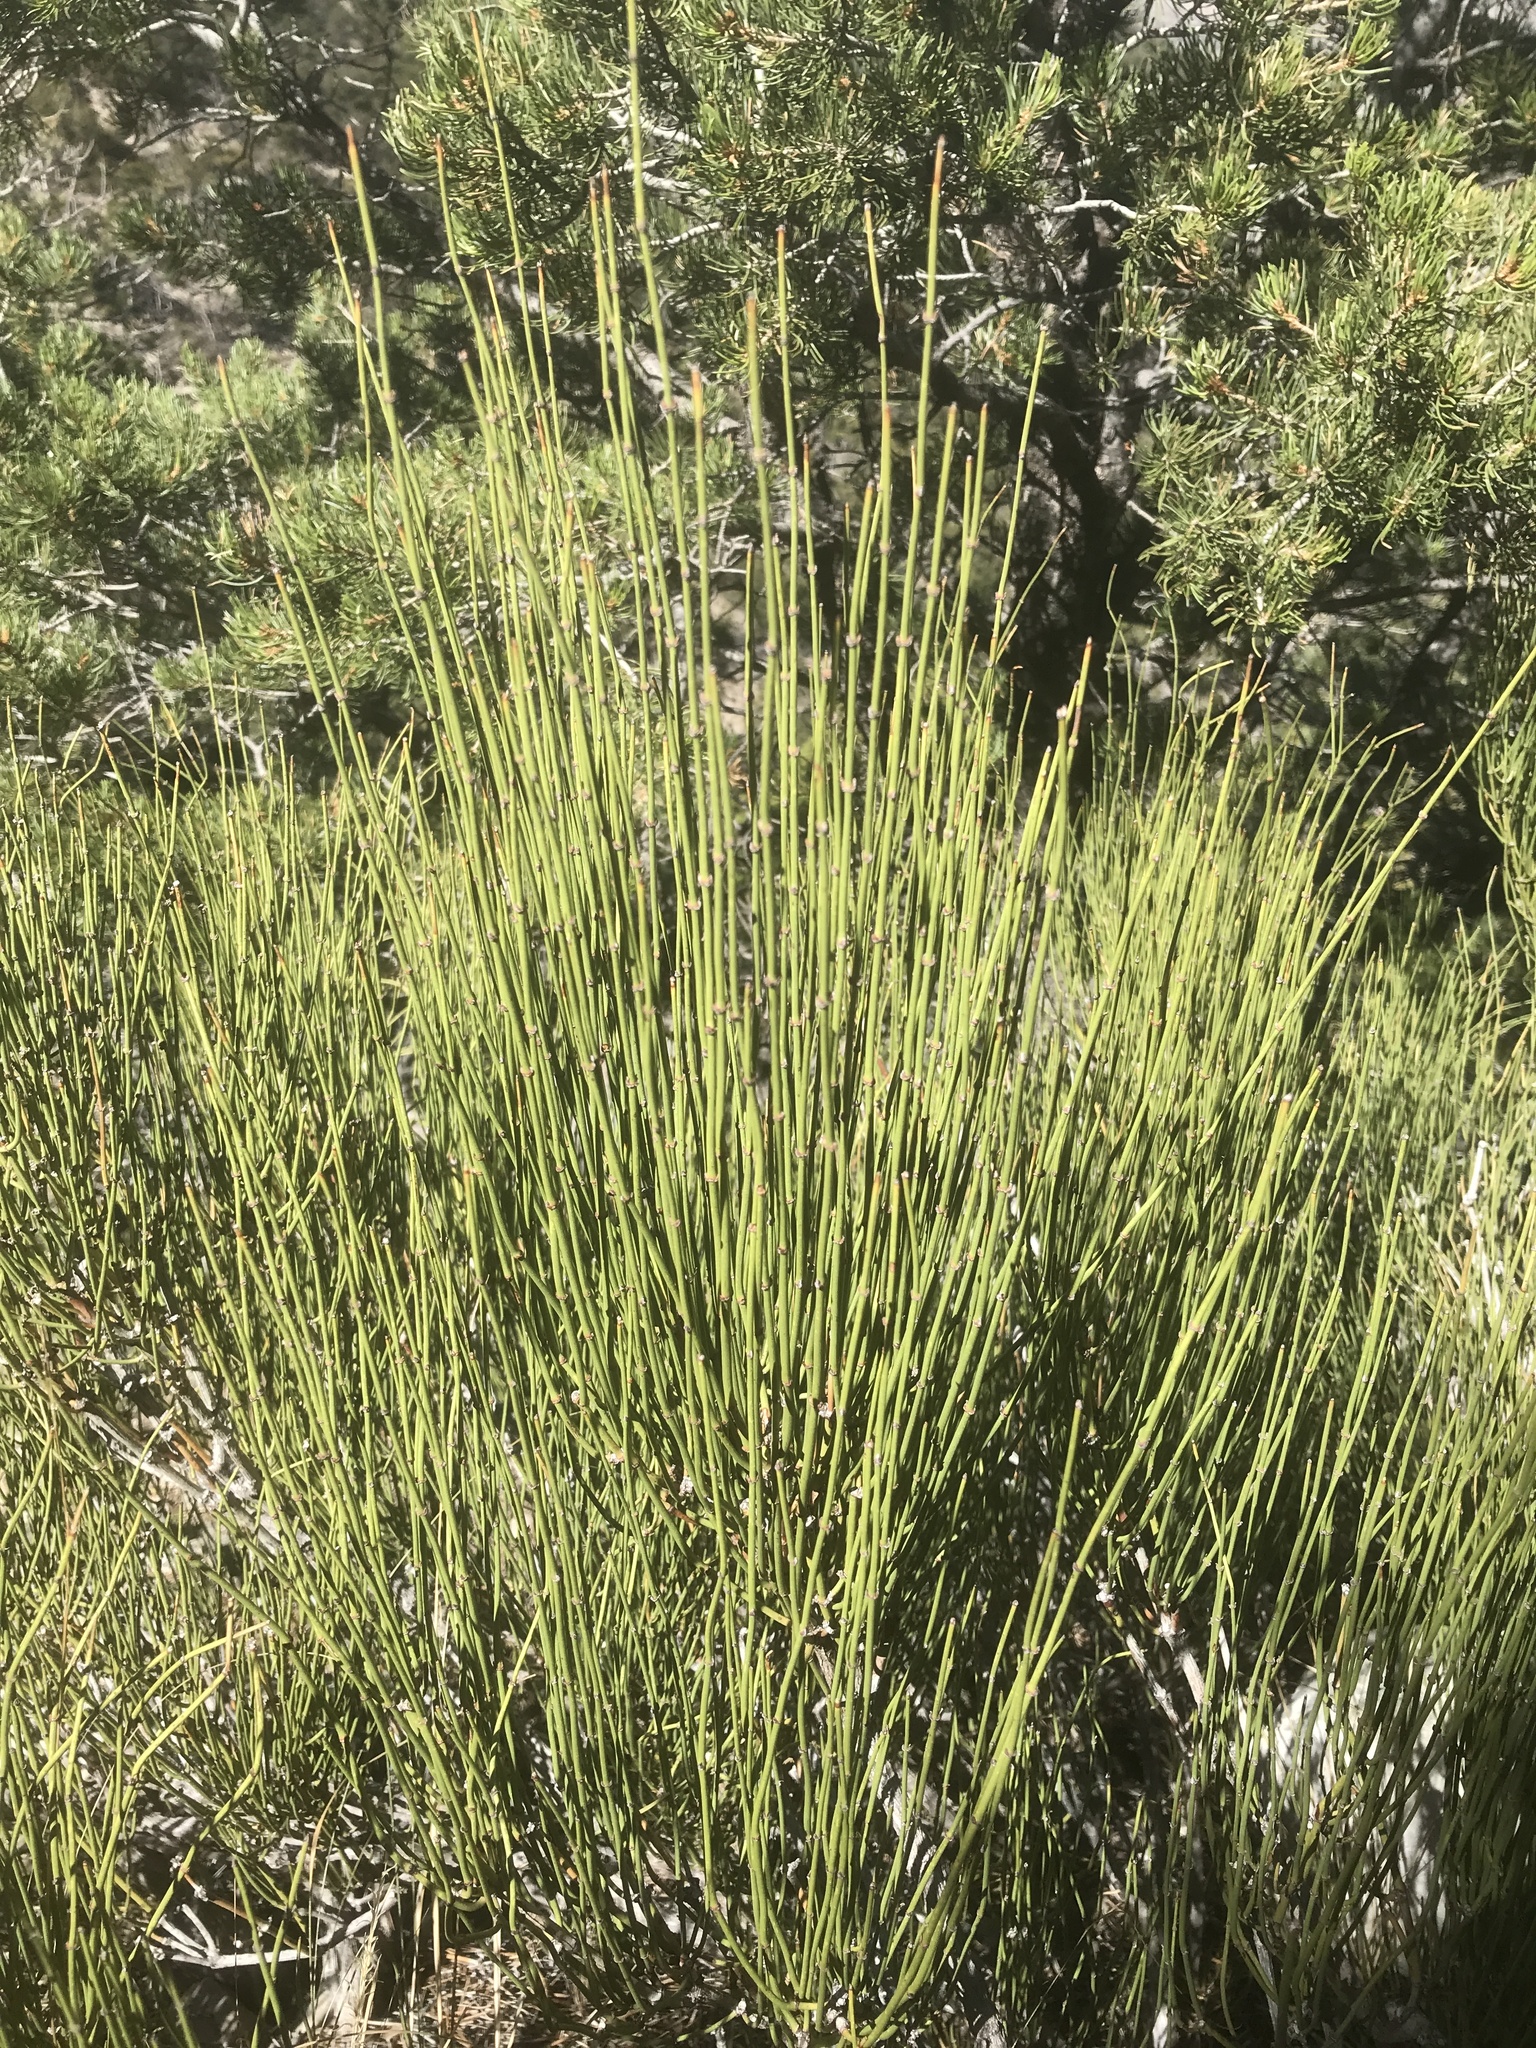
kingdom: Plantae
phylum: Tracheophyta
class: Gnetopsida
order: Ephedrales
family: Ephedraceae
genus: Ephedra
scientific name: Ephedra viridis
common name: Green ephedra
